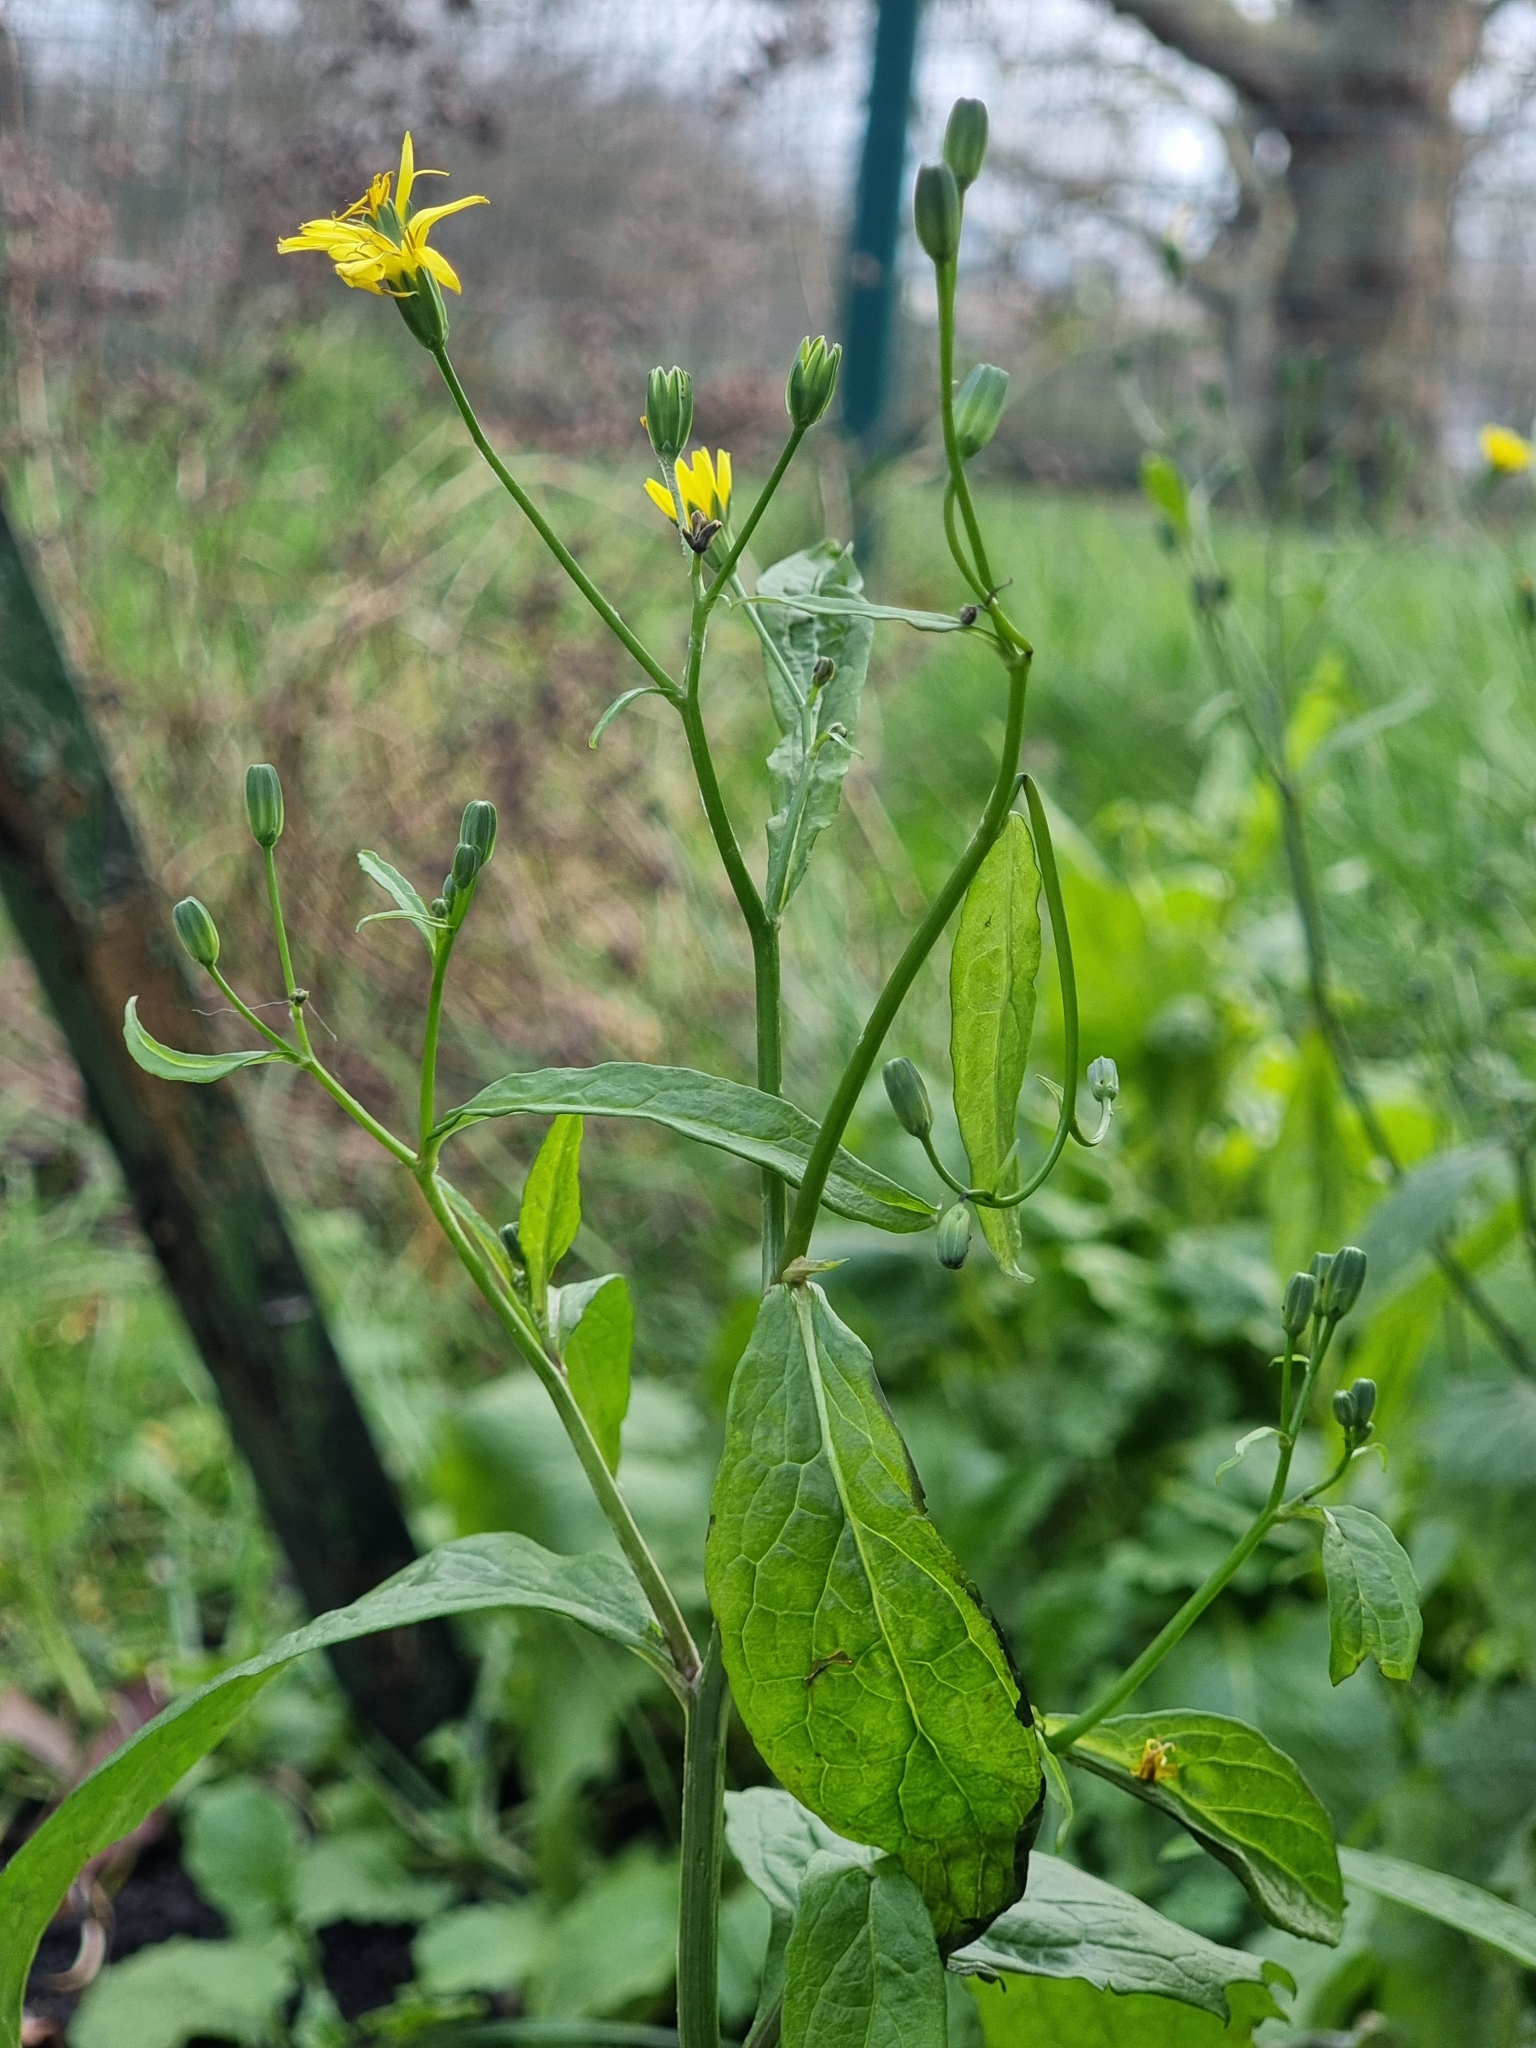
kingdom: Plantae
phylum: Tracheophyta
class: Magnoliopsida
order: Asterales
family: Asteraceae
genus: Lapsana
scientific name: Lapsana communis
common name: Nipplewort
